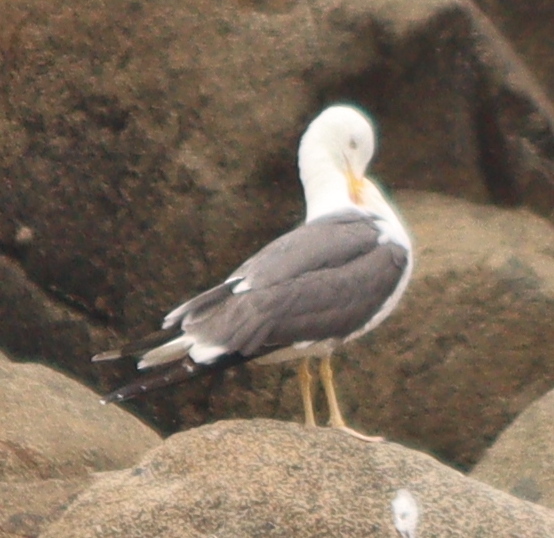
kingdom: Animalia
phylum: Chordata
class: Aves
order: Charadriiformes
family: Laridae
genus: Larus
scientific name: Larus fuscus
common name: Lesser black-backed gull
